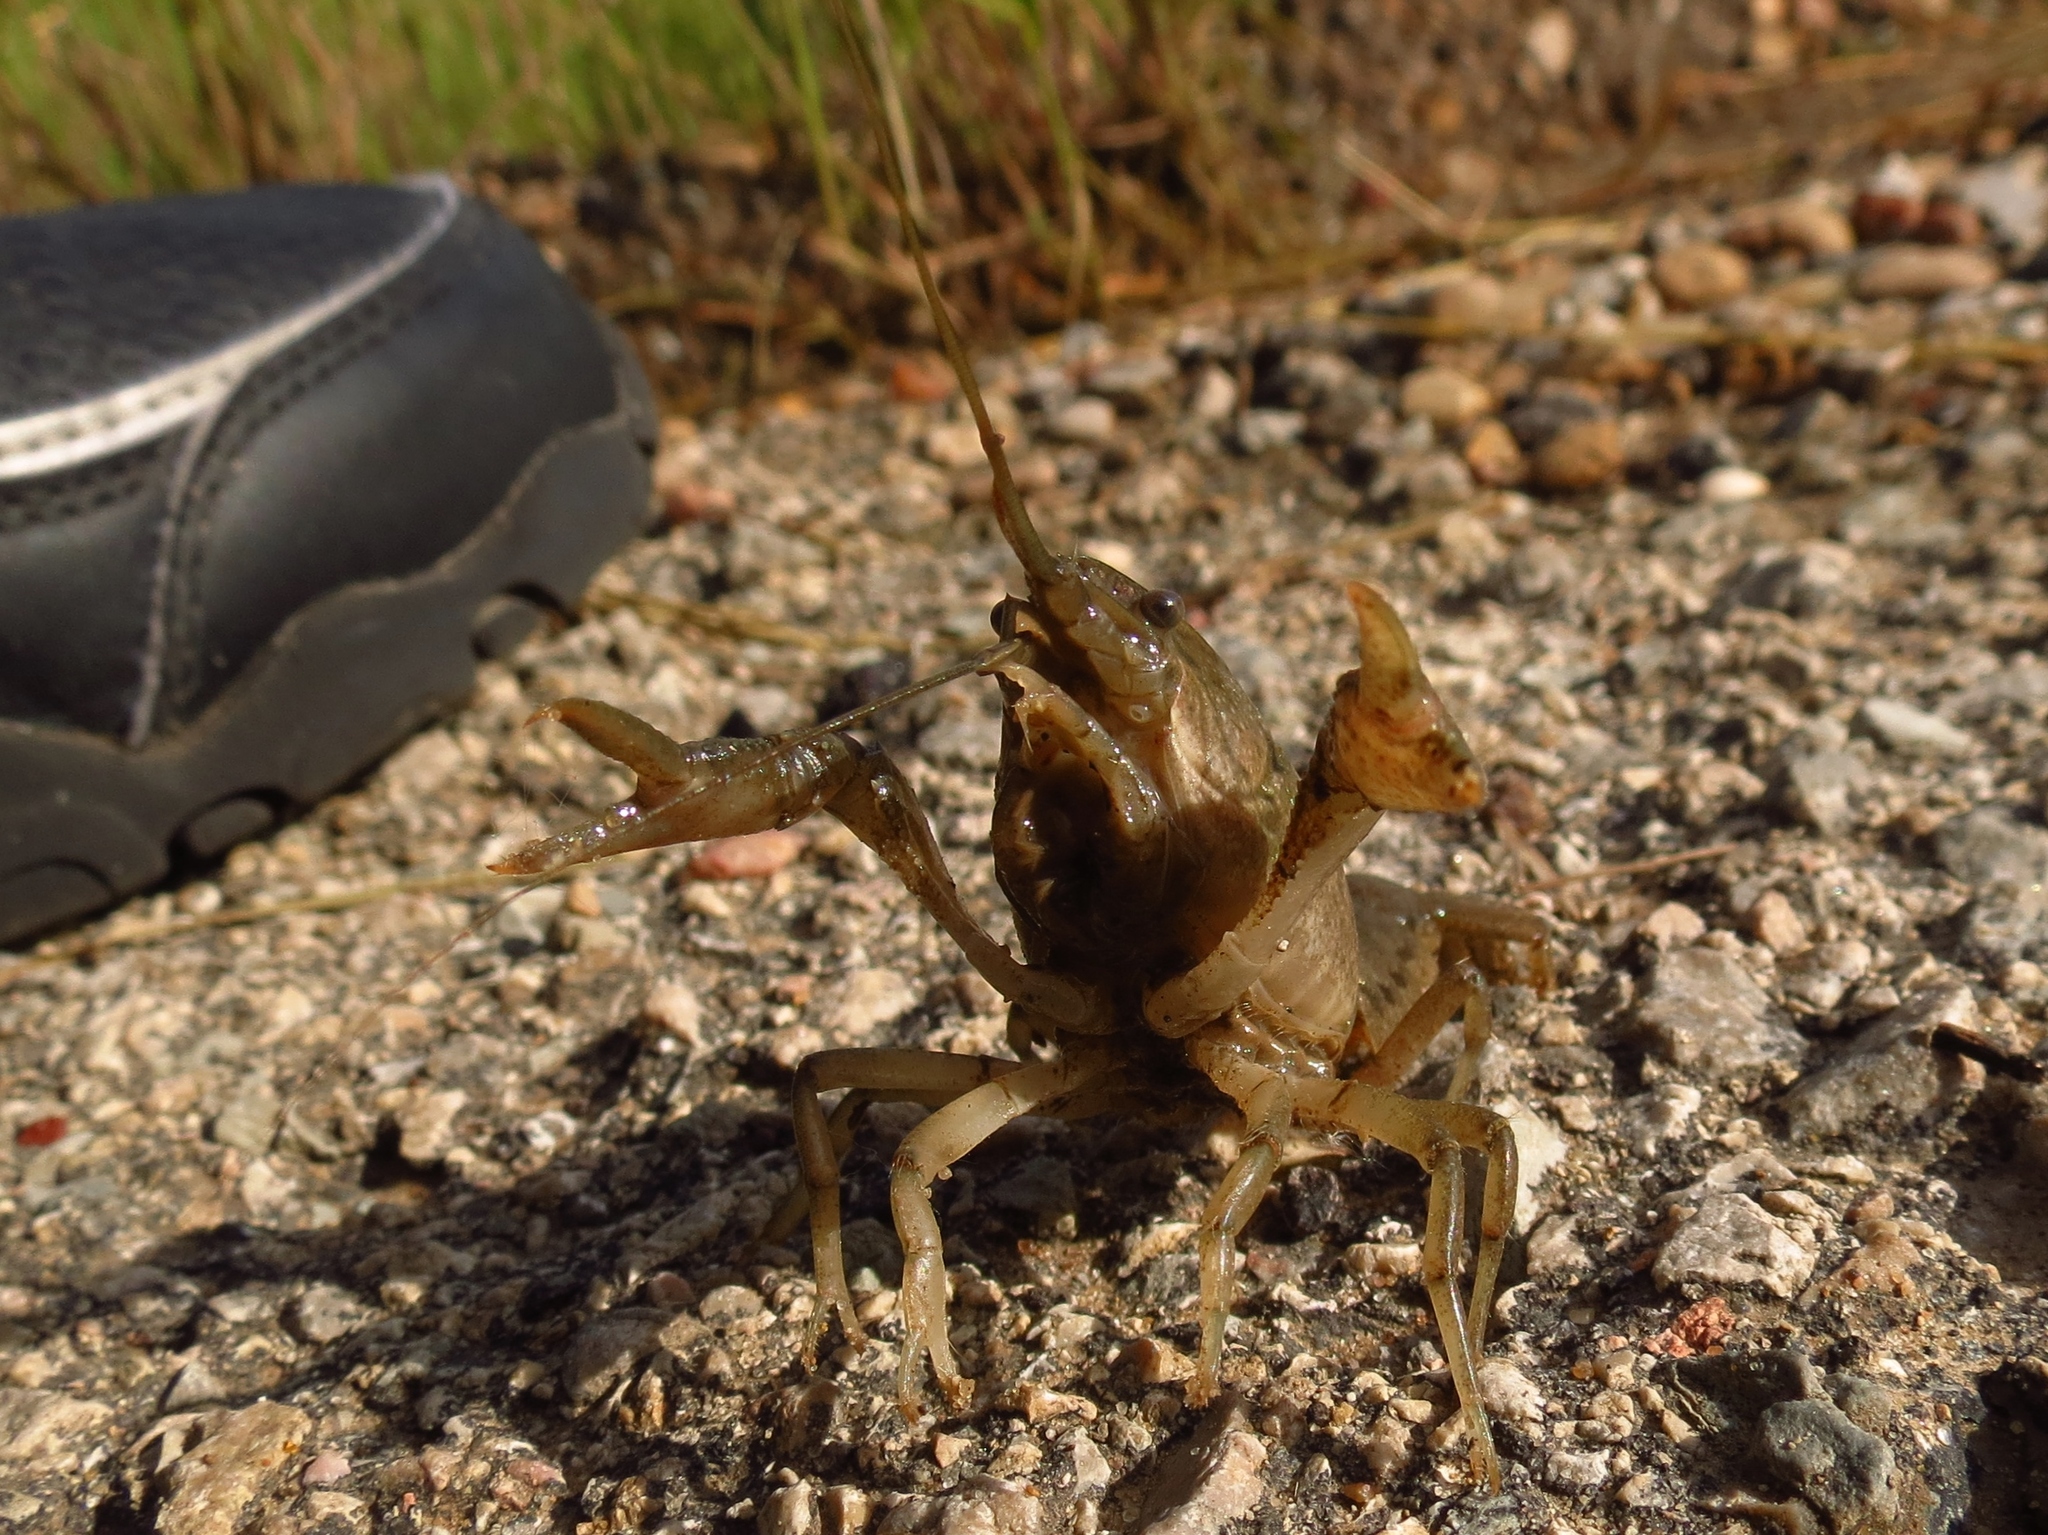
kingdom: Animalia
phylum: Arthropoda
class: Malacostraca
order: Decapoda
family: Cambaridae
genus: Procambarus
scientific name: Procambarus simulans
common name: Southern plains crayfish
